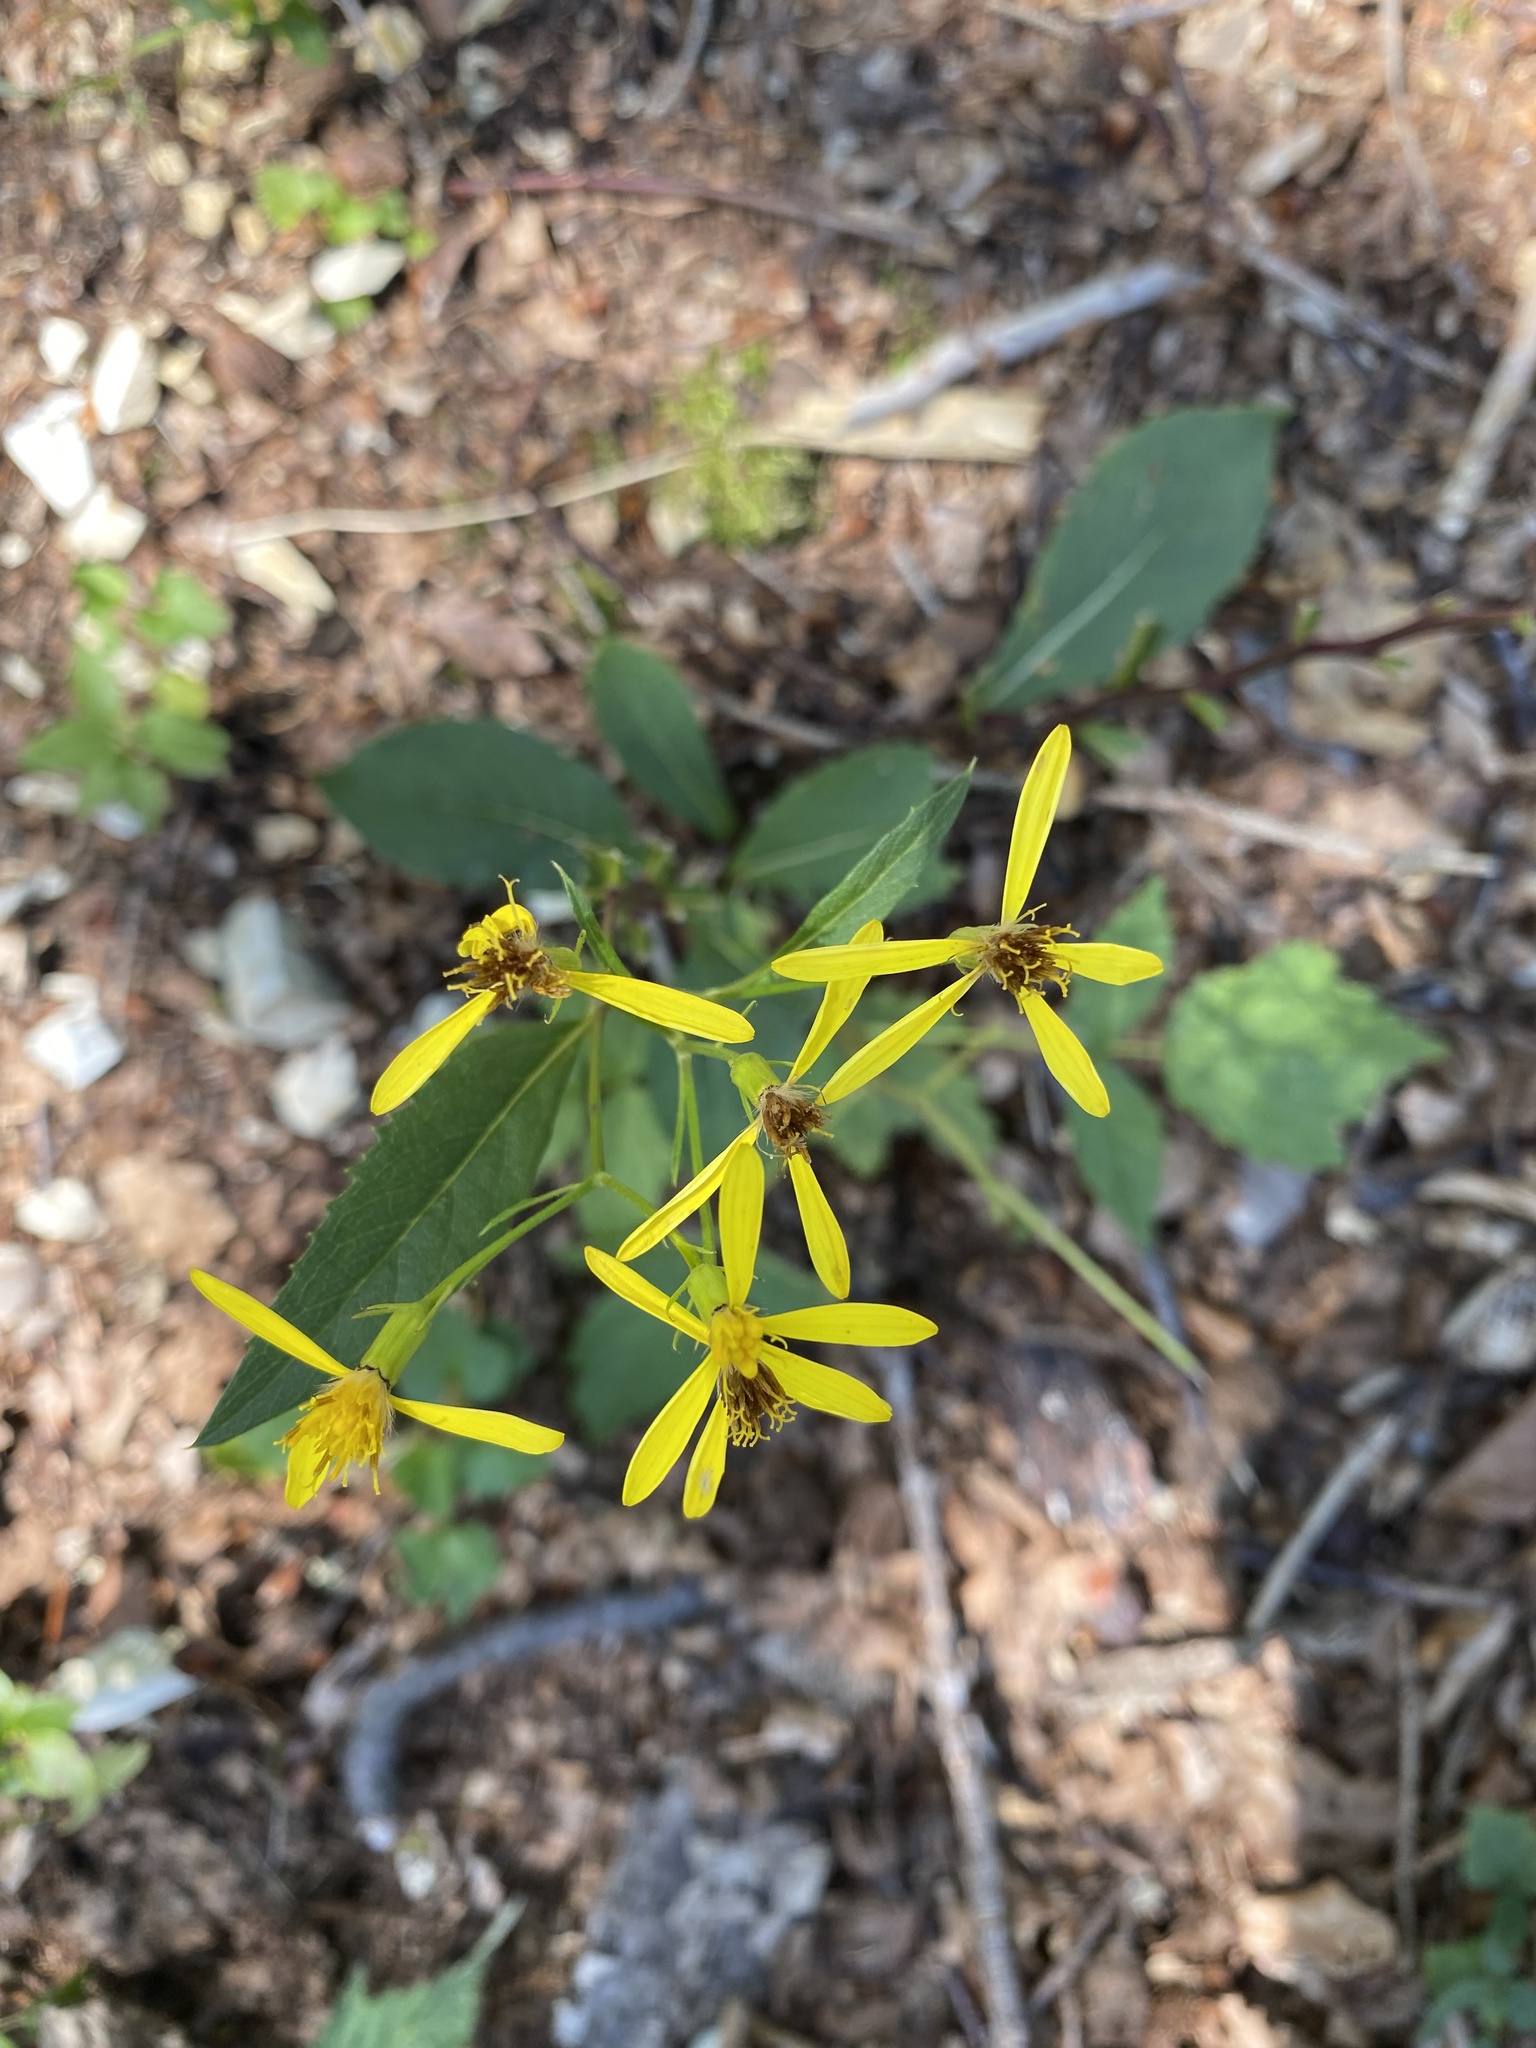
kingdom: Plantae
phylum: Tracheophyta
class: Magnoliopsida
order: Asterales
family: Asteraceae
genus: Senecio
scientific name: Senecio ovatus
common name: Wood ragwort
